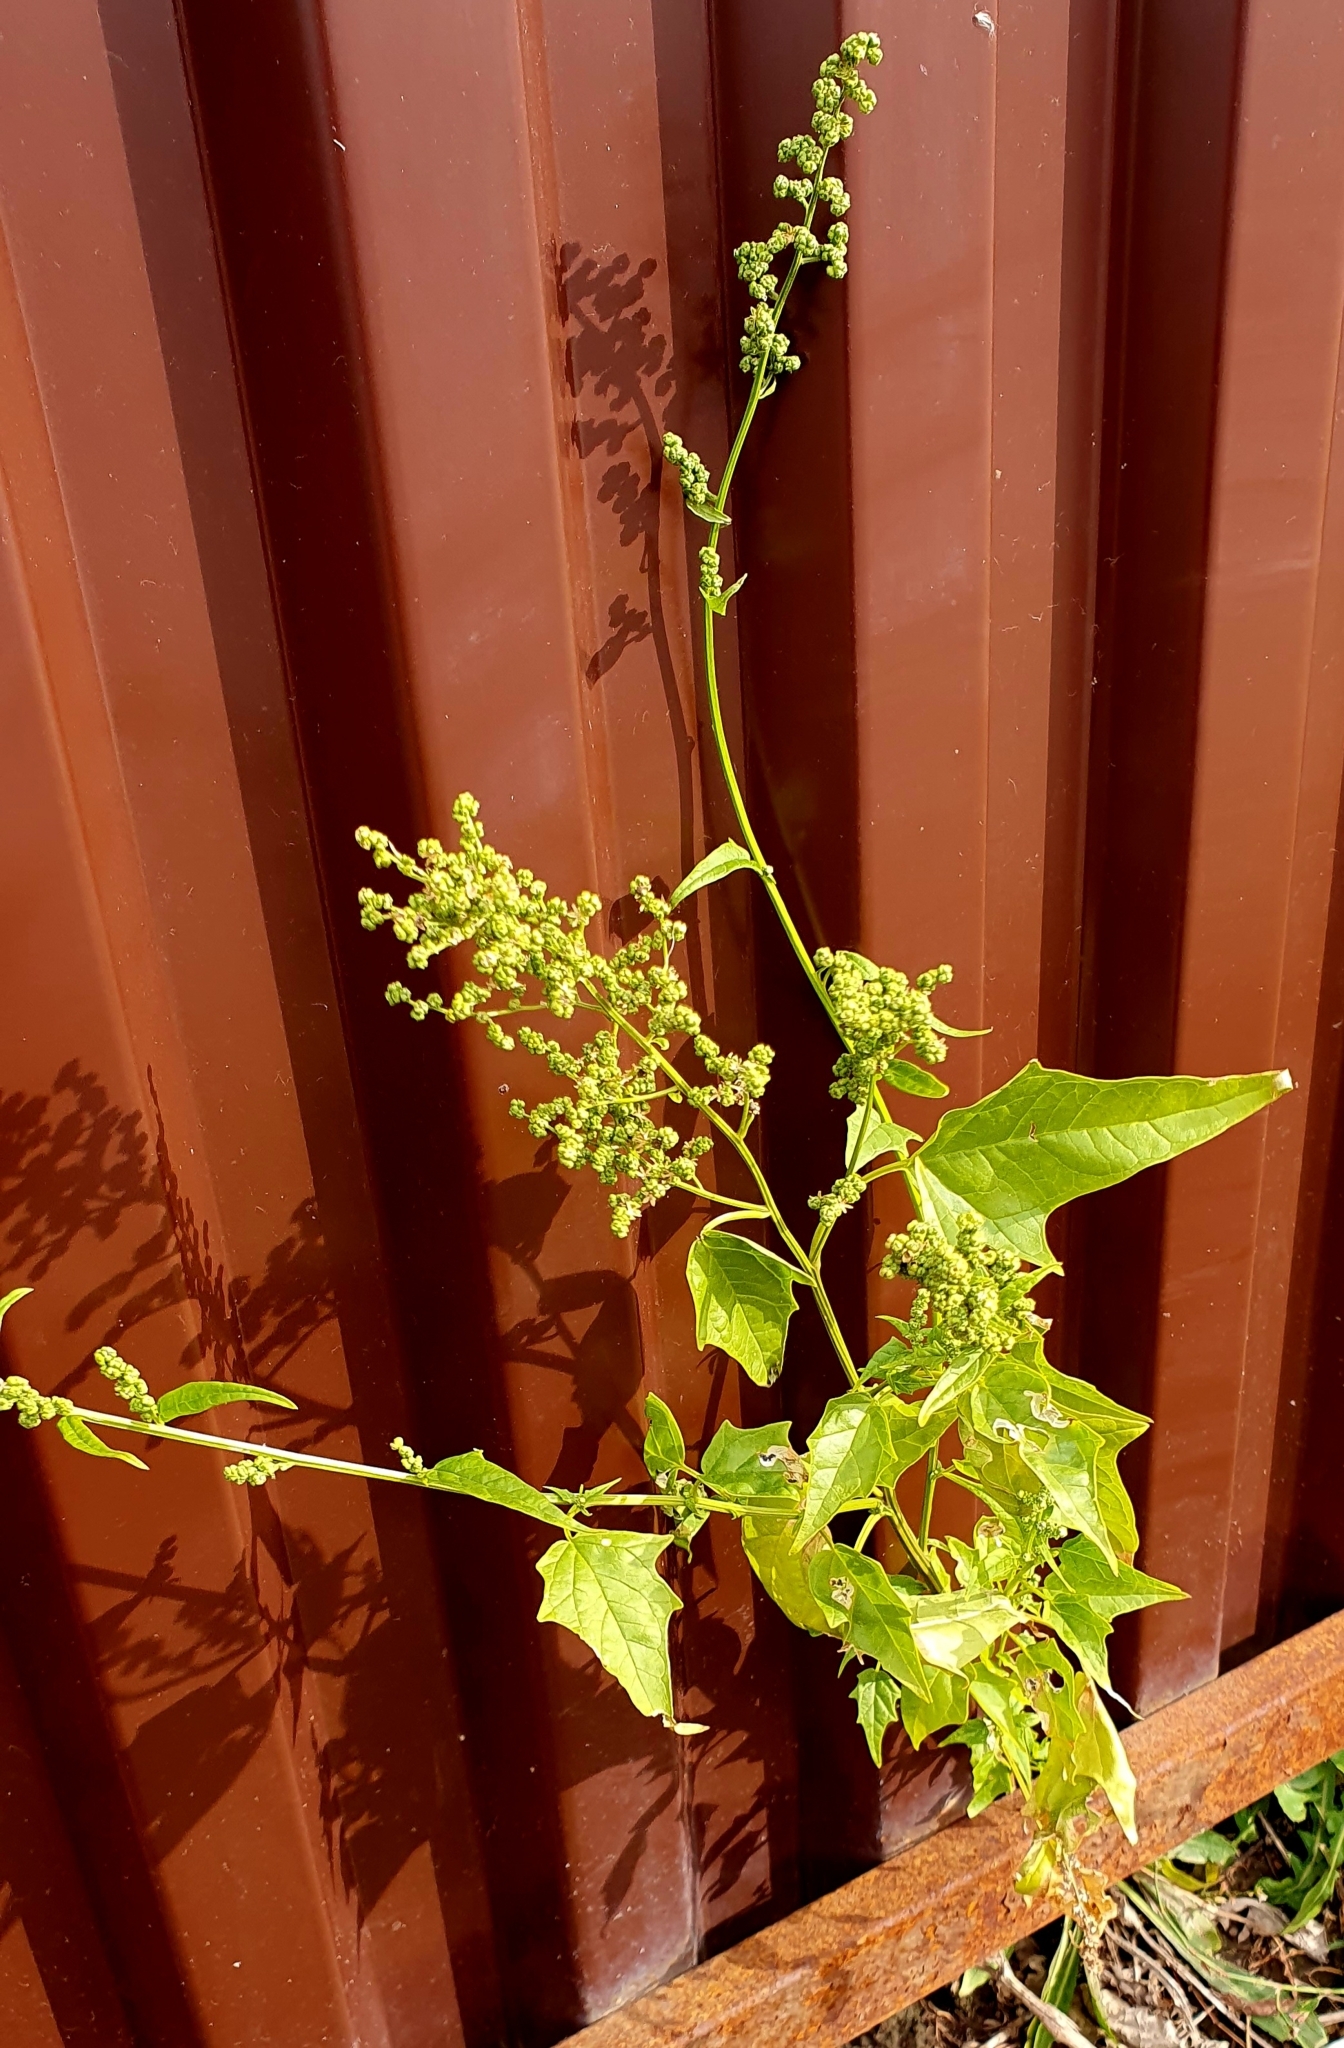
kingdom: Plantae
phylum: Tracheophyta
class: Magnoliopsida
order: Caryophyllales
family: Amaranthaceae
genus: Chenopodiastrum
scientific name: Chenopodiastrum hybridum
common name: Mapleleaf goosefoot
